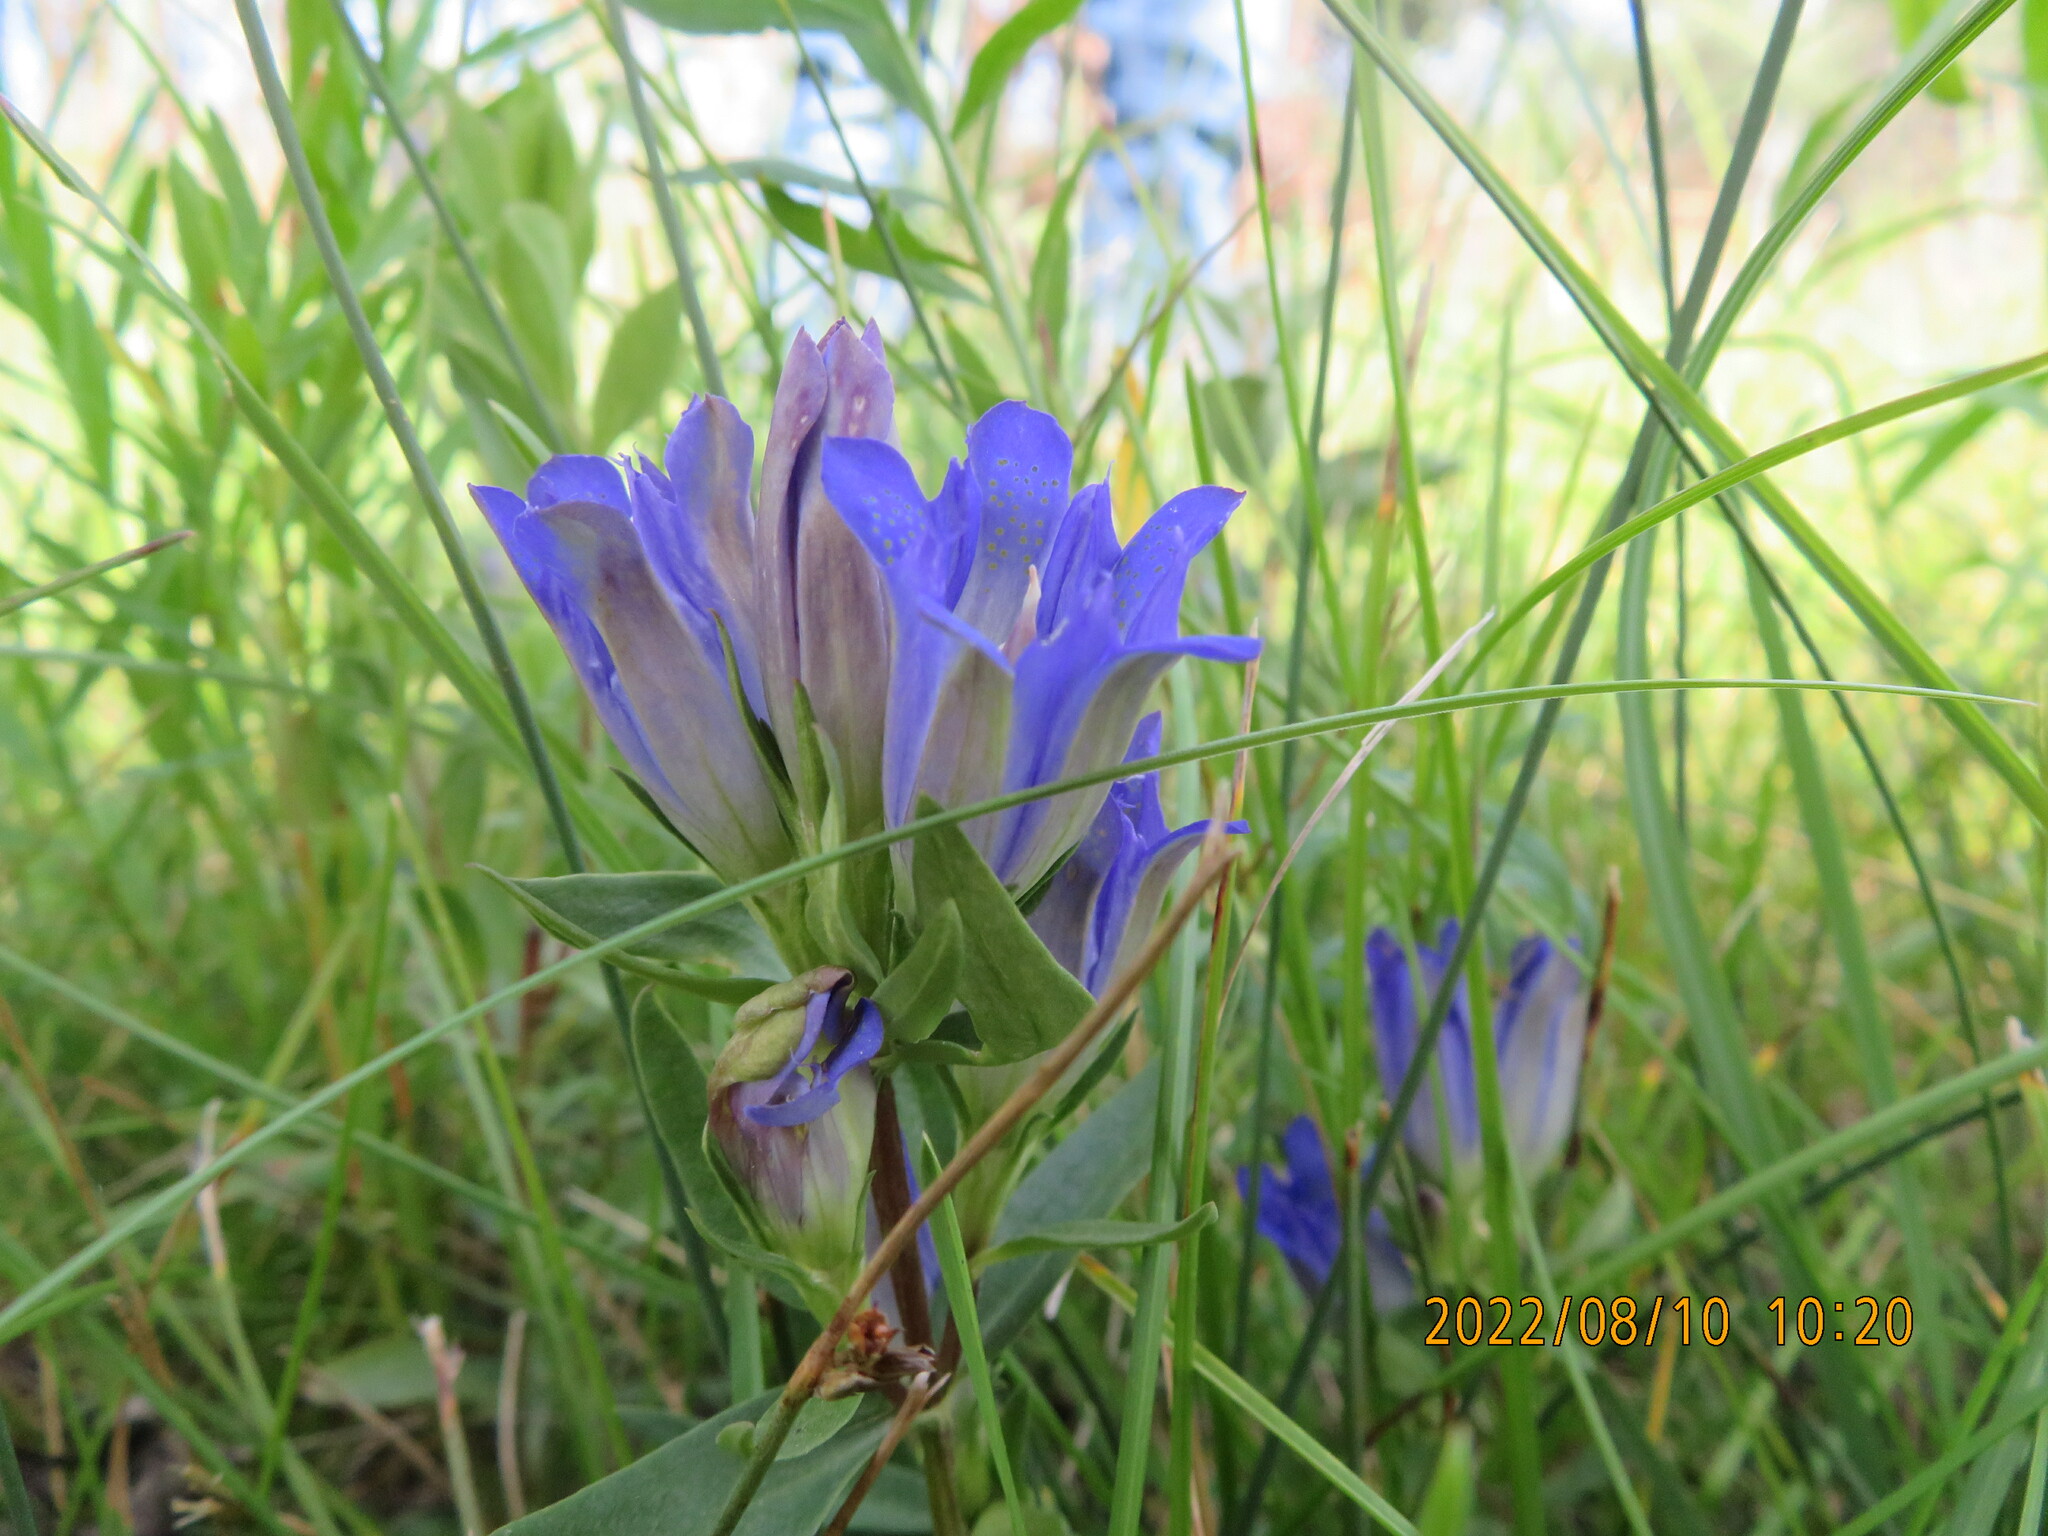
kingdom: Plantae
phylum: Tracheophyta
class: Magnoliopsida
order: Gentianales
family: Gentianaceae
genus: Gentiana
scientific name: Gentiana affinis
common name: Rocky mountain gentian
